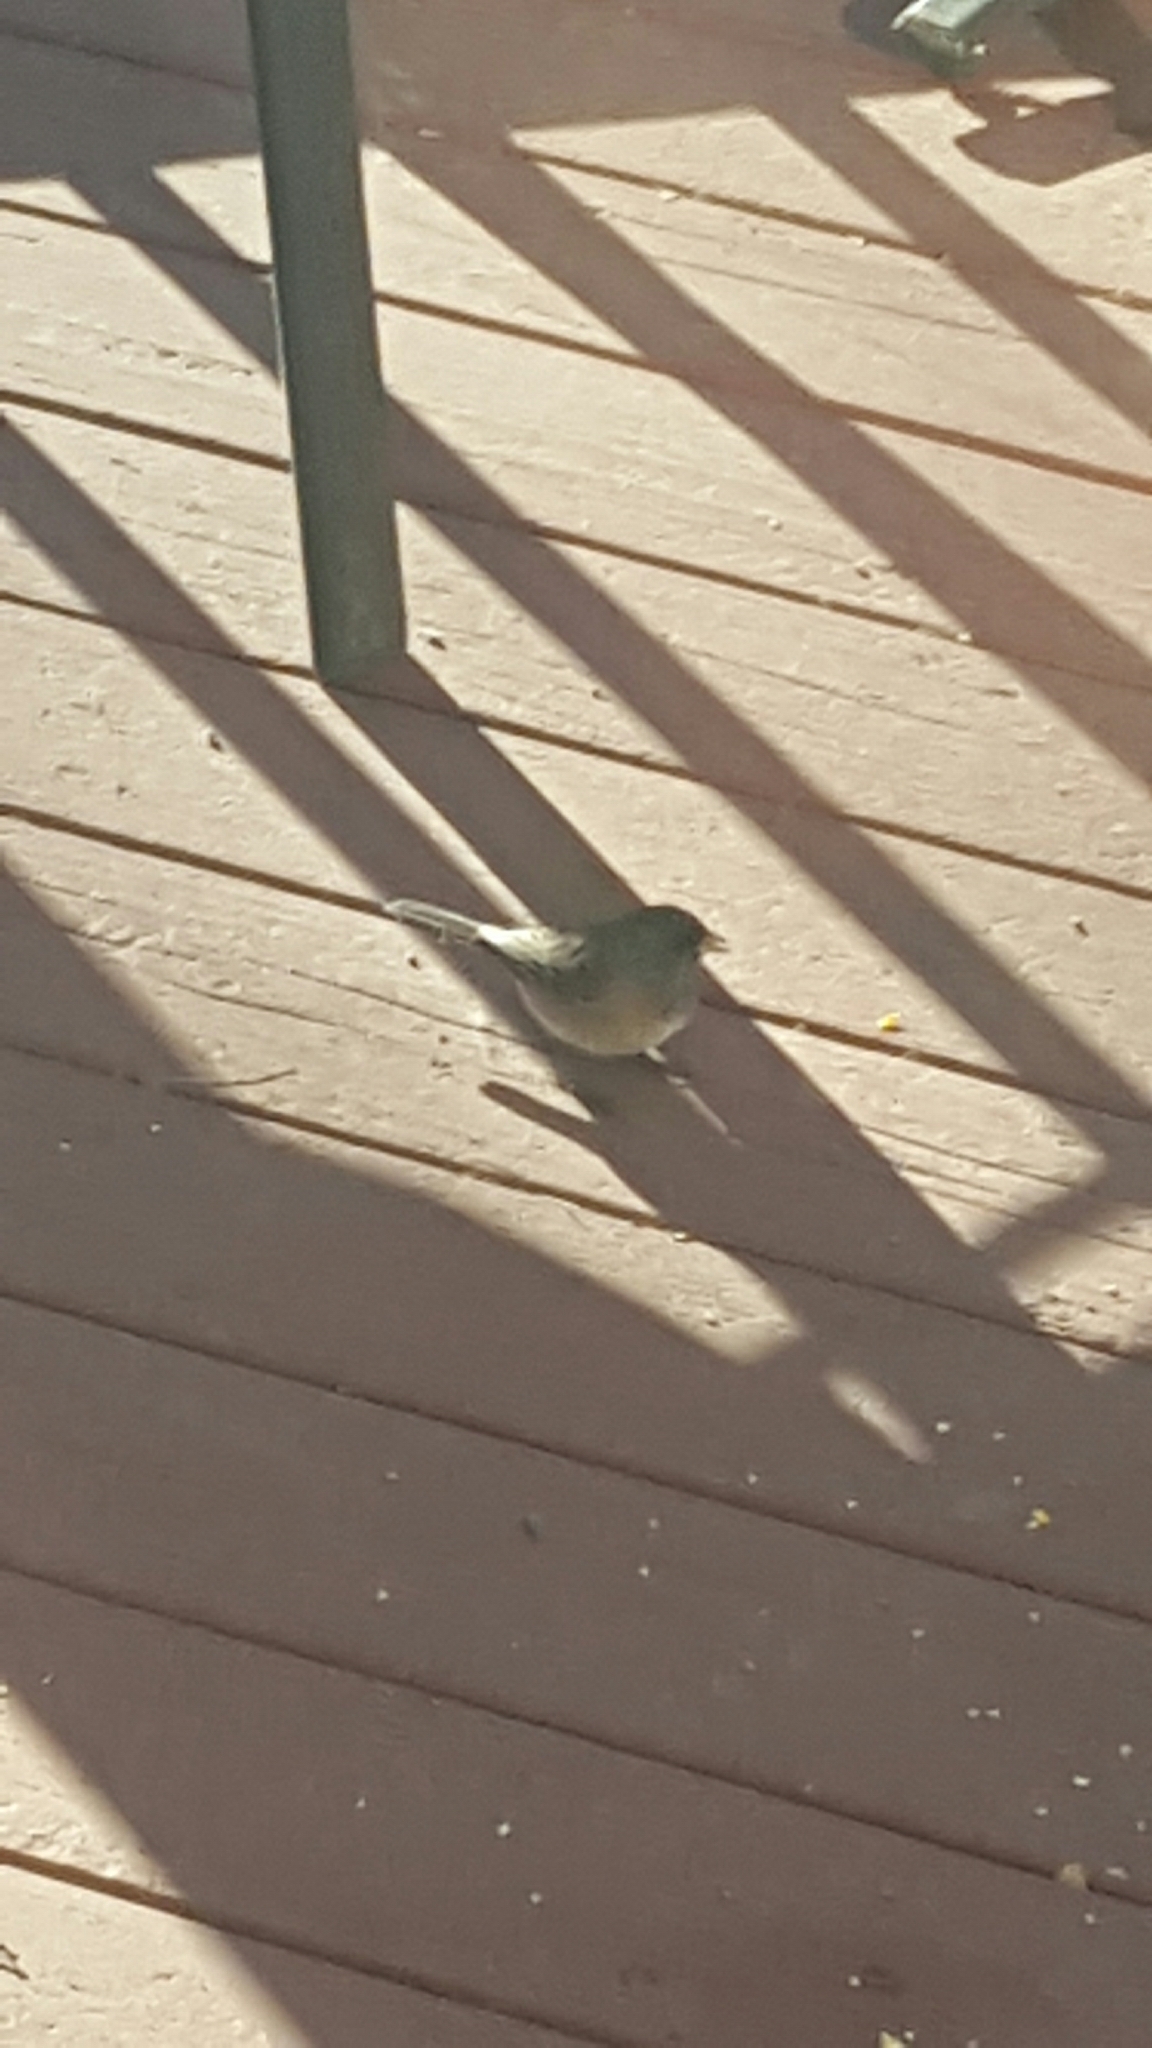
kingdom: Animalia
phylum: Chordata
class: Aves
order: Passeriformes
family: Passerellidae
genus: Junco
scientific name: Junco hyemalis
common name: Dark-eyed junco
